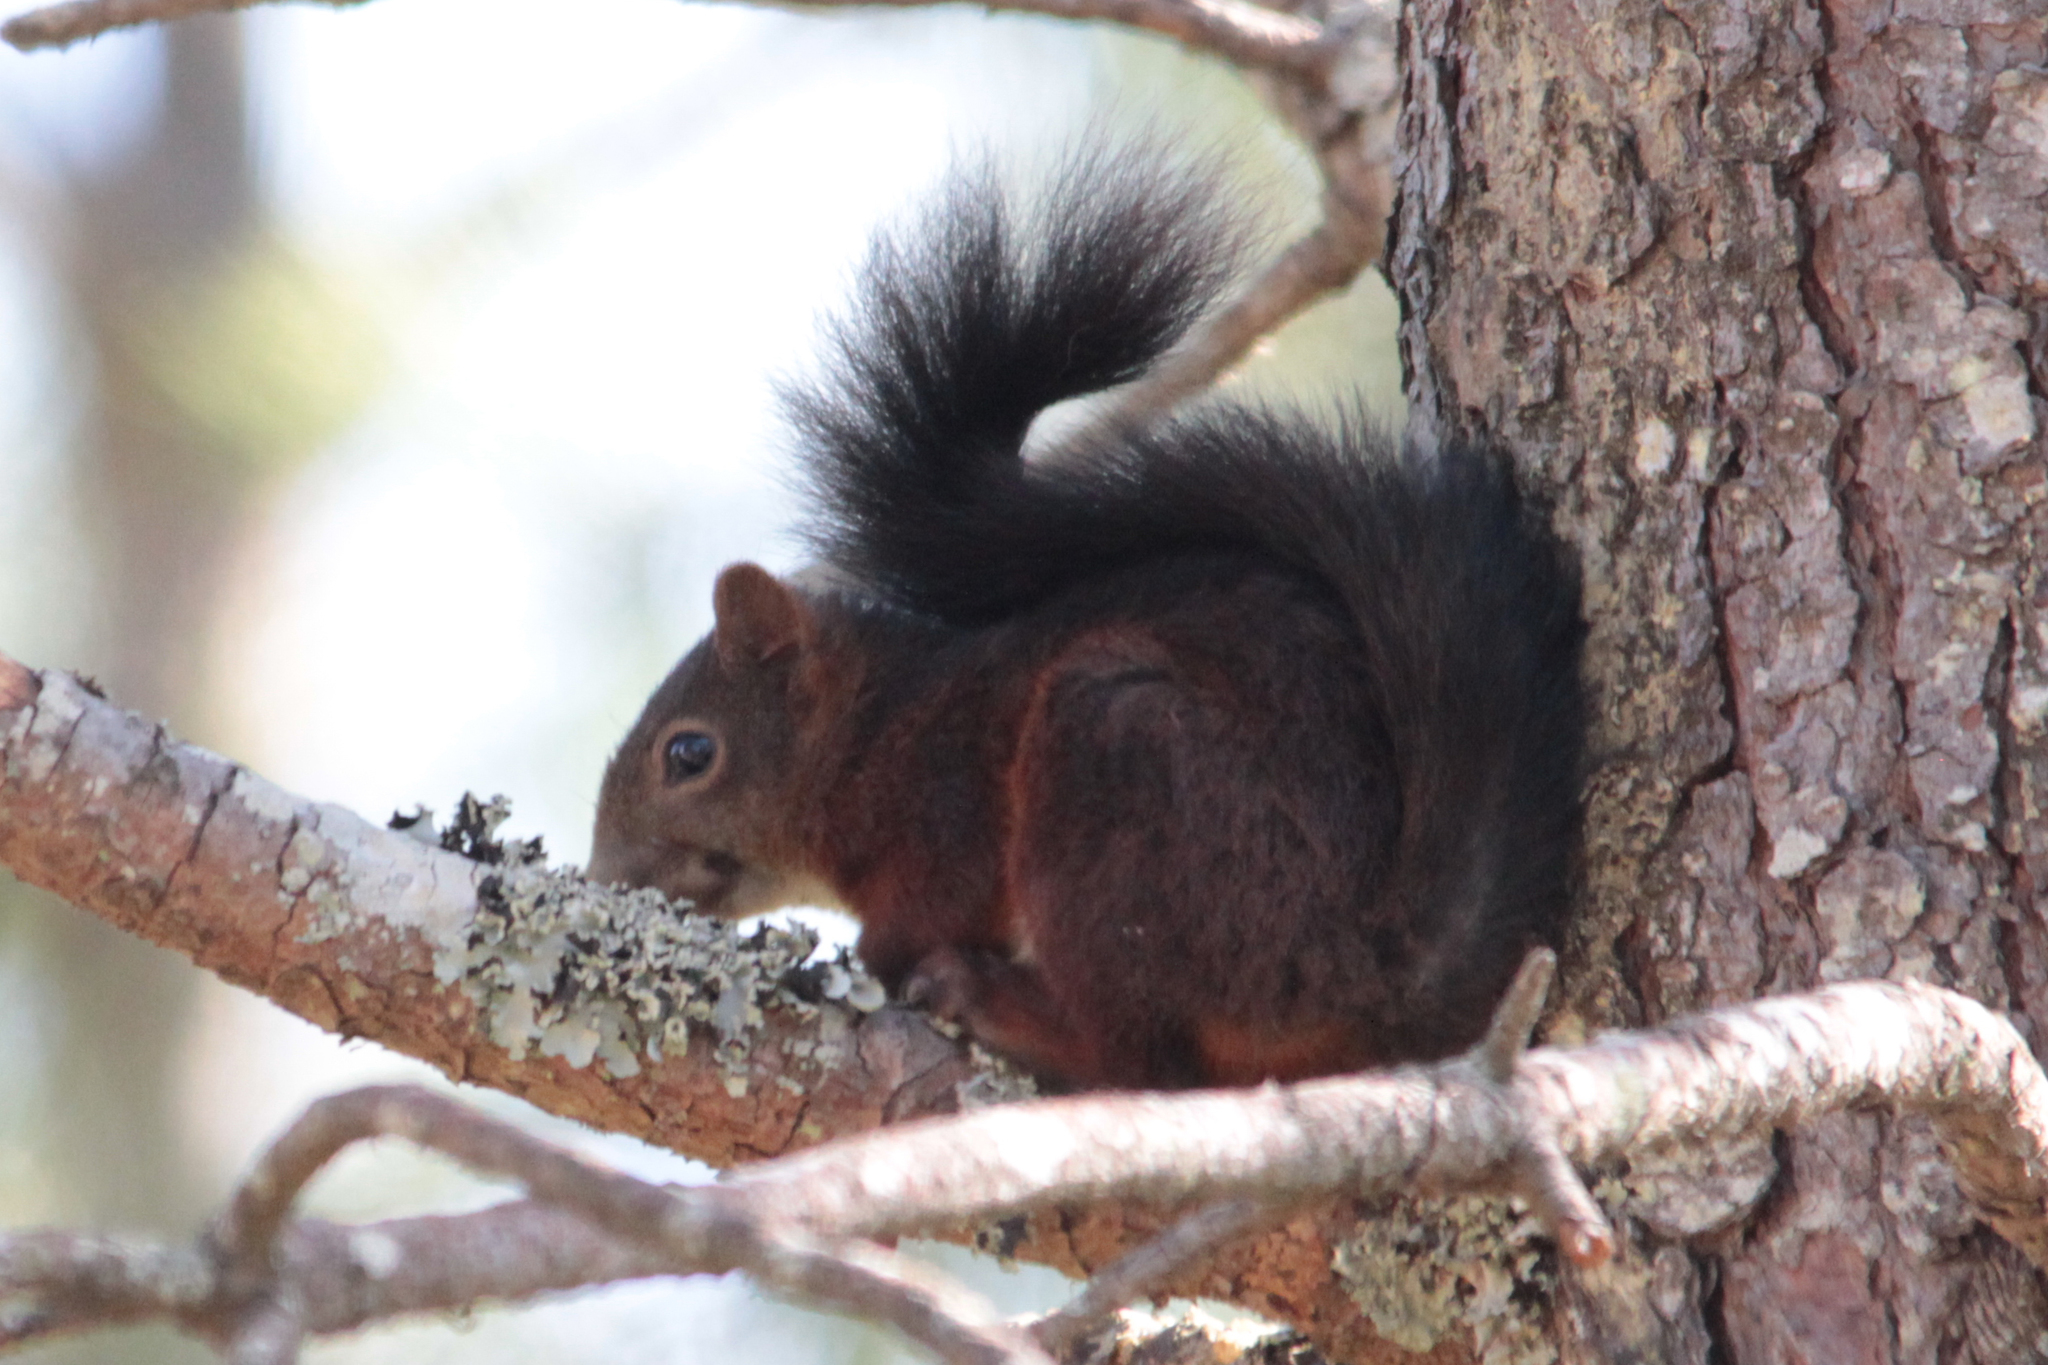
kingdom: Animalia
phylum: Chordata
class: Mammalia
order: Rodentia
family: Sciuridae
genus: Sciurus
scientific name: Sciurus vulgaris
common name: Eurasian red squirrel
